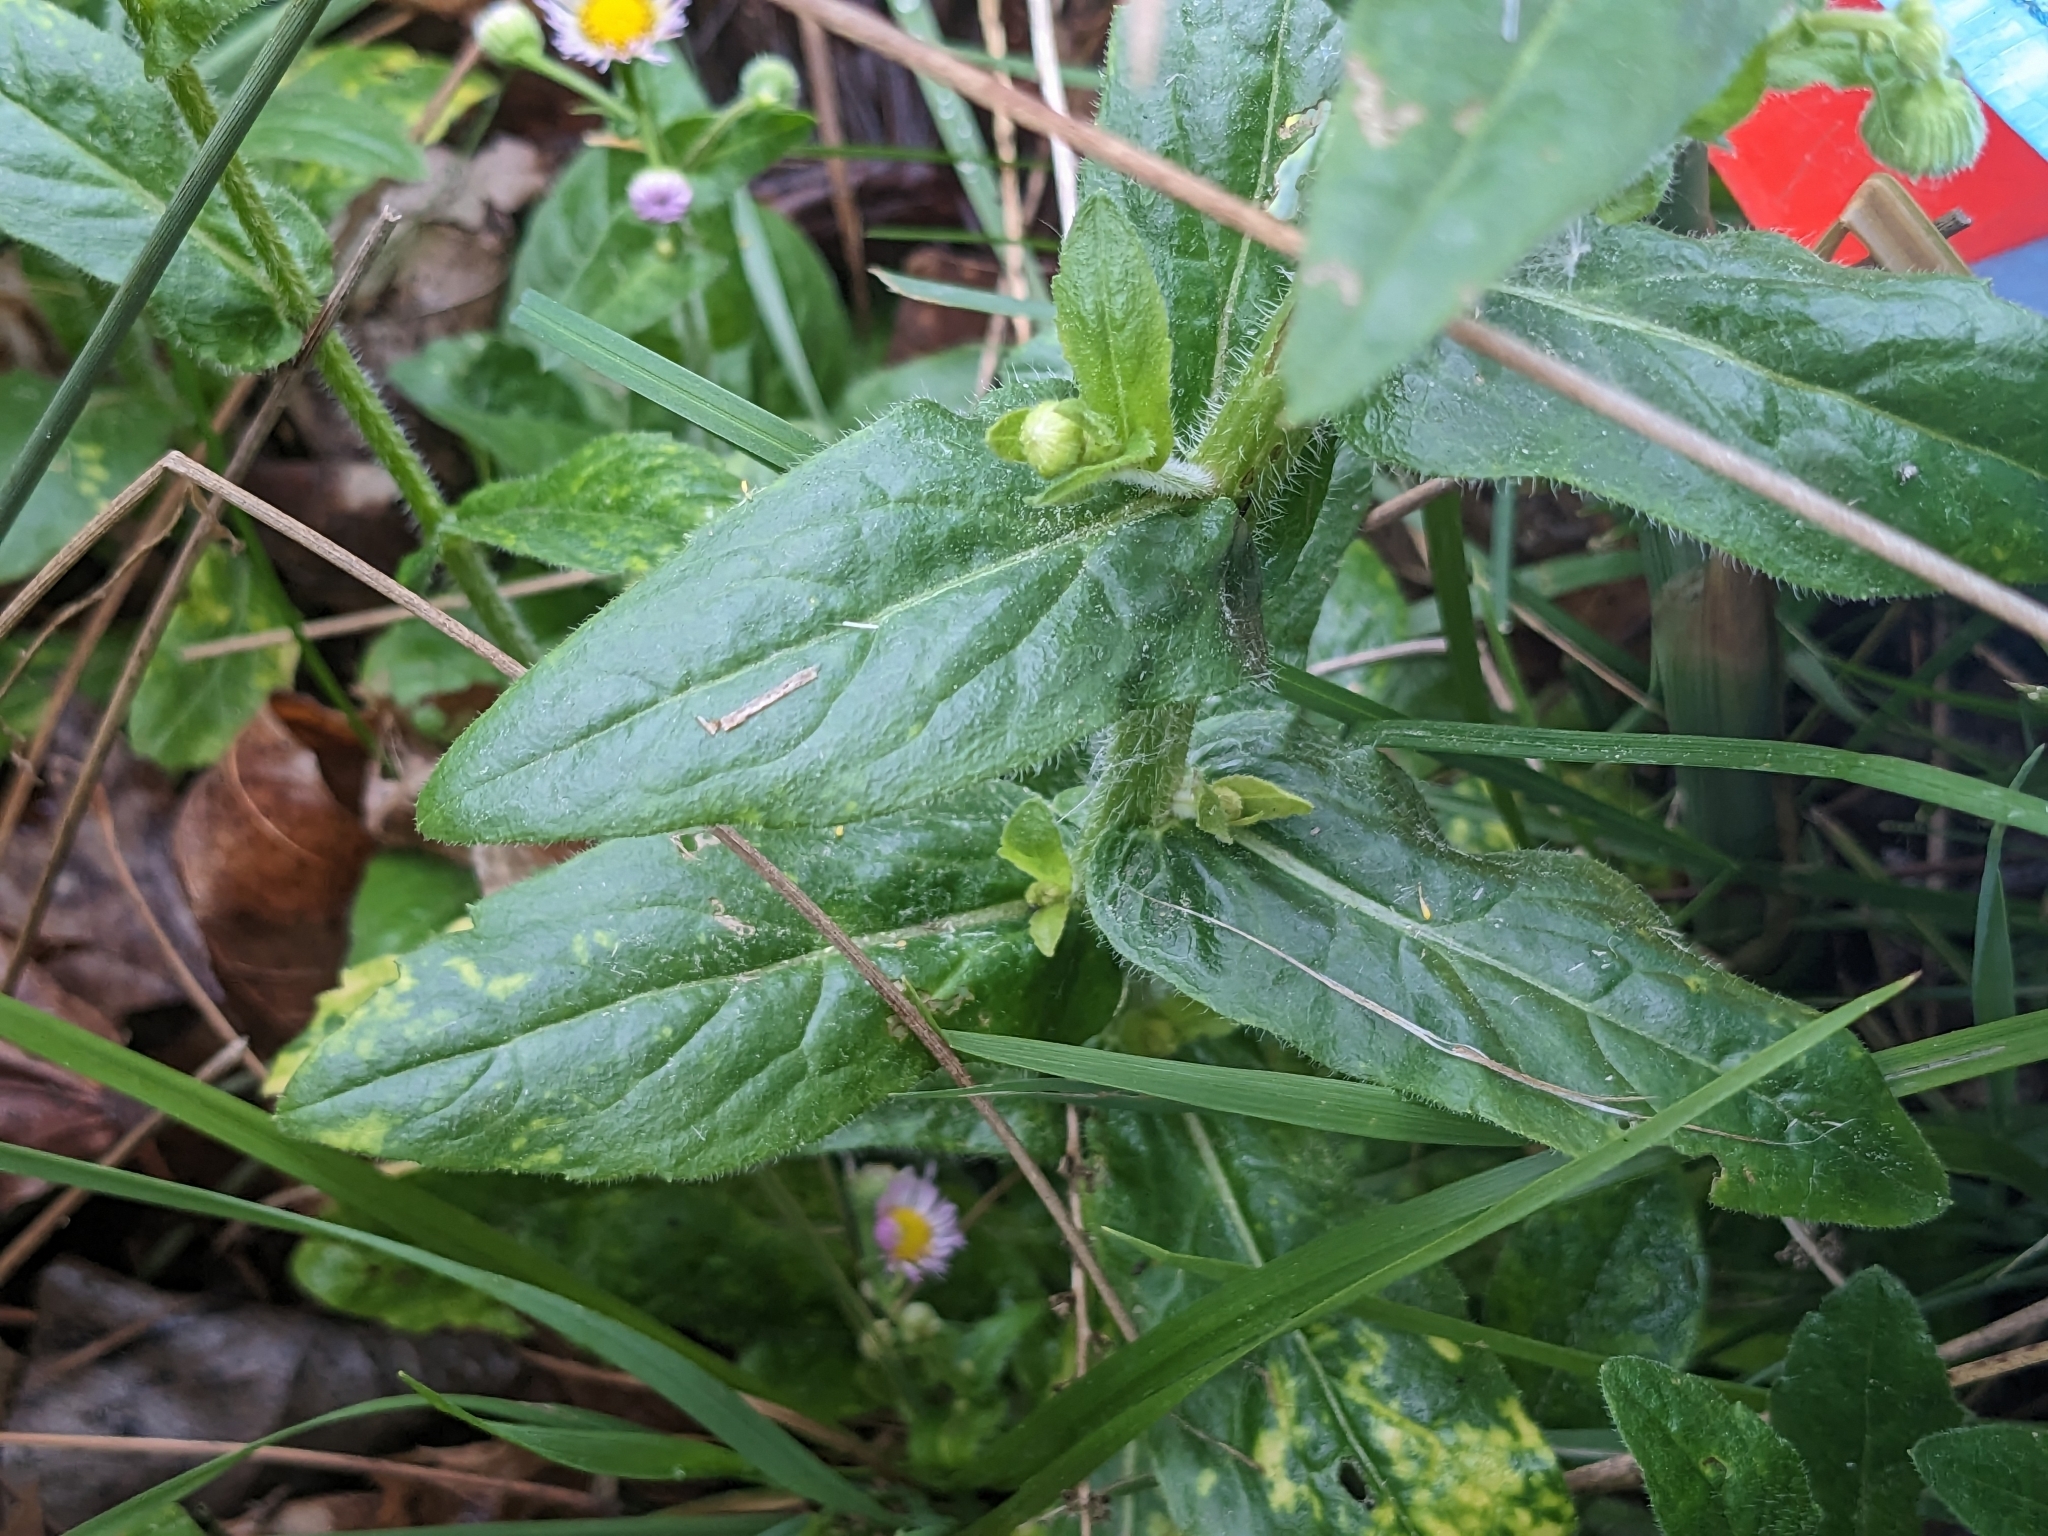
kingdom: Plantae
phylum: Tracheophyta
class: Magnoliopsida
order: Asterales
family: Asteraceae
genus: Erigeron
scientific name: Erigeron philadelphicus
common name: Robin's-plantain
